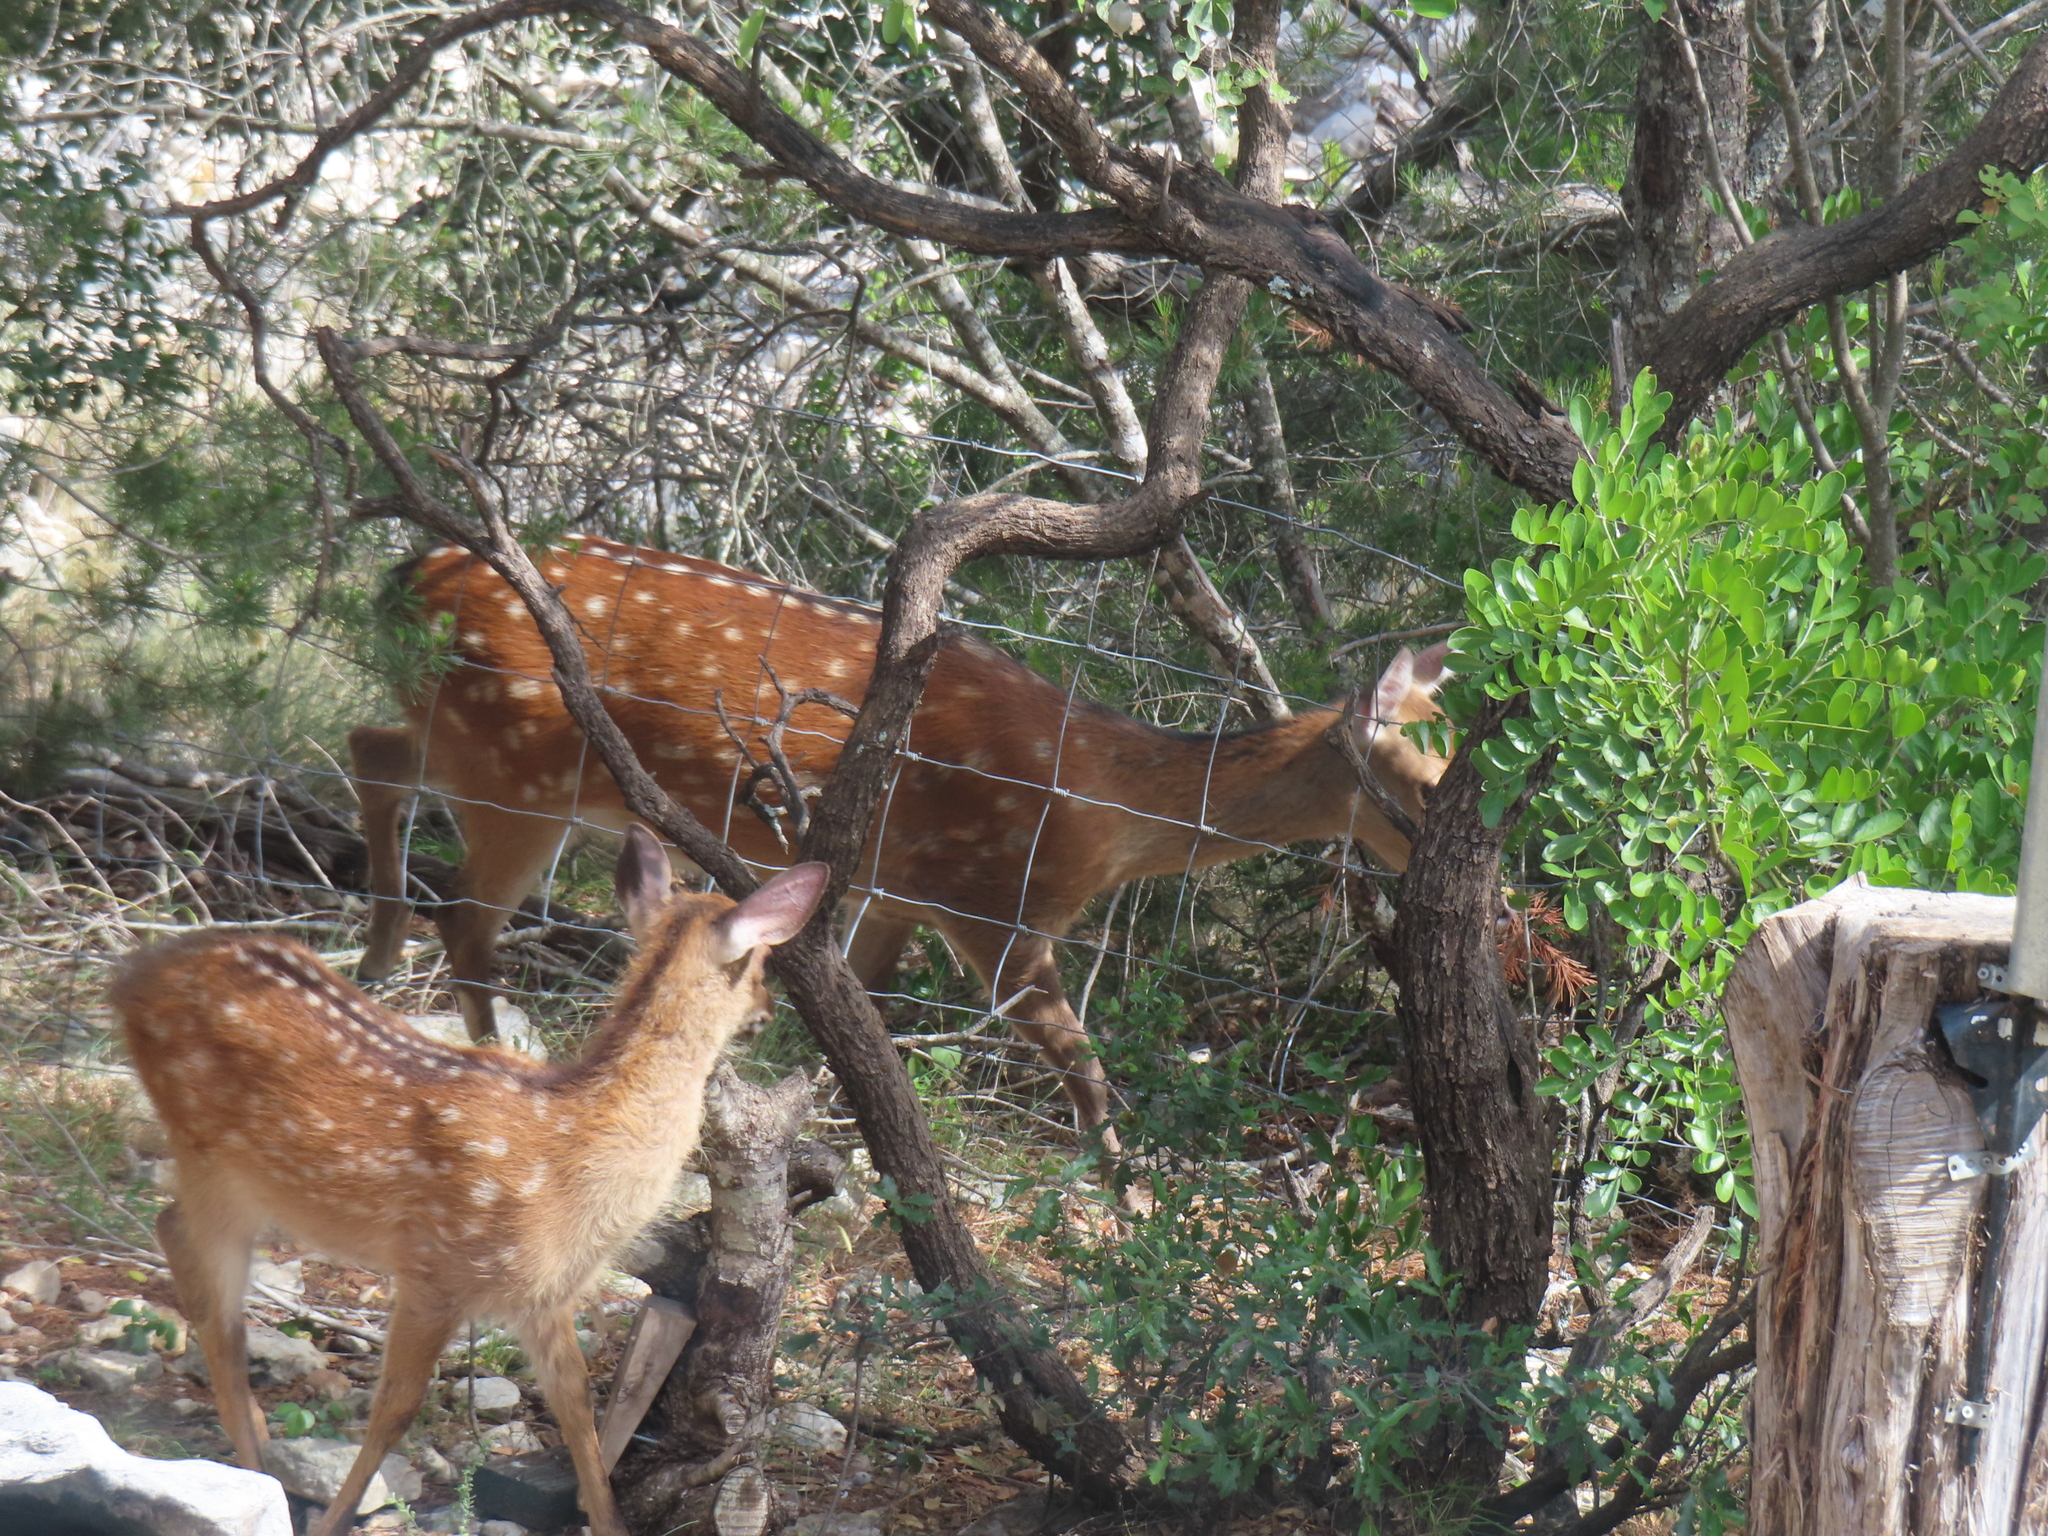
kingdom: Animalia
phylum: Chordata
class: Mammalia
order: Artiodactyla
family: Cervidae
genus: Cervus
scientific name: Cervus nippon
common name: Sika deer
